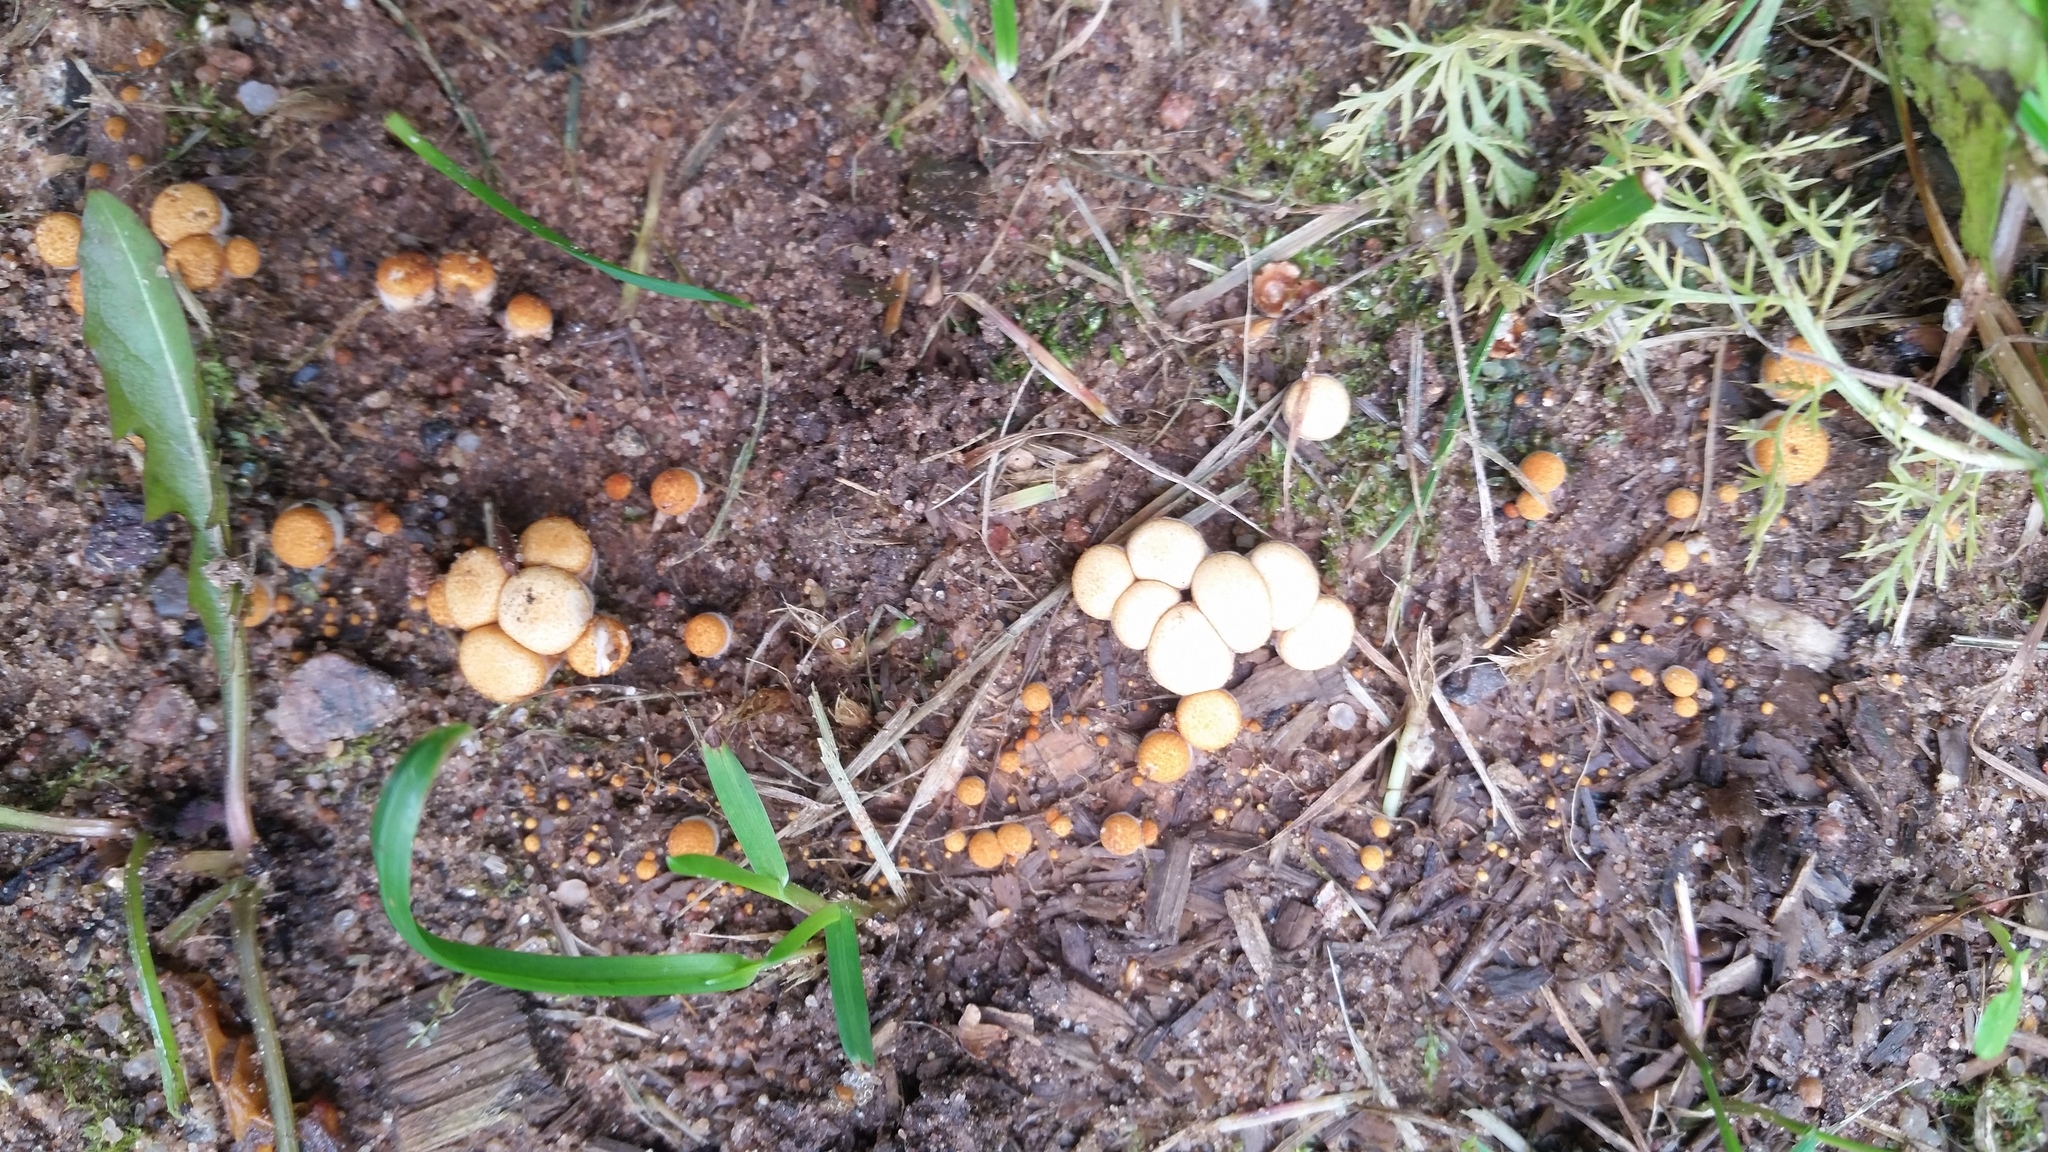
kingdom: Fungi
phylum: Basidiomycota
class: Agaricomycetes
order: Agaricales
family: Nidulariaceae
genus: Crucibulum
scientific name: Crucibulum laeve
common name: Common bird's nest
